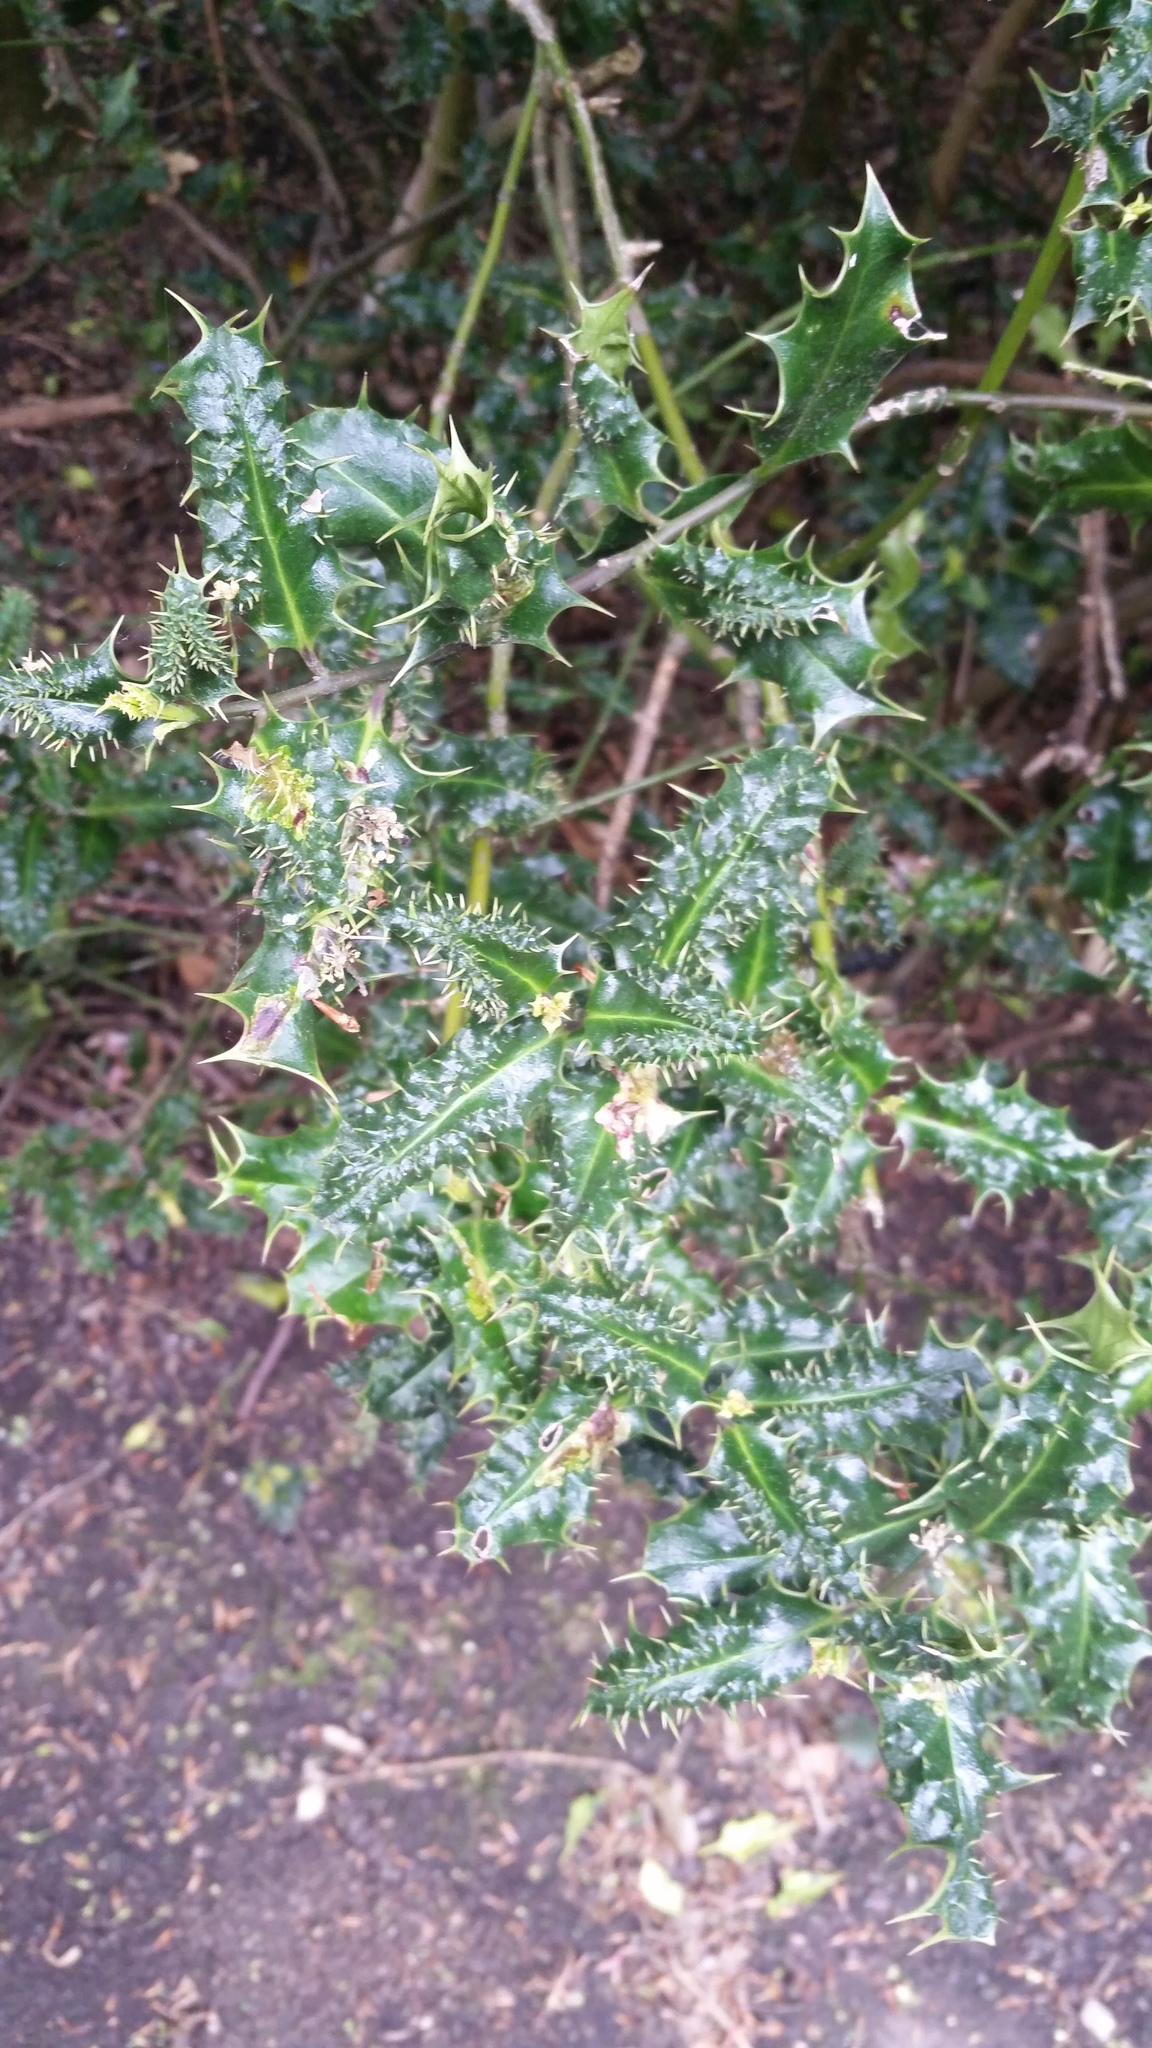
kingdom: Plantae
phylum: Tracheophyta
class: Magnoliopsida
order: Aquifoliales
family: Aquifoliaceae
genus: Ilex
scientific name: Ilex aquifolium
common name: English holly
